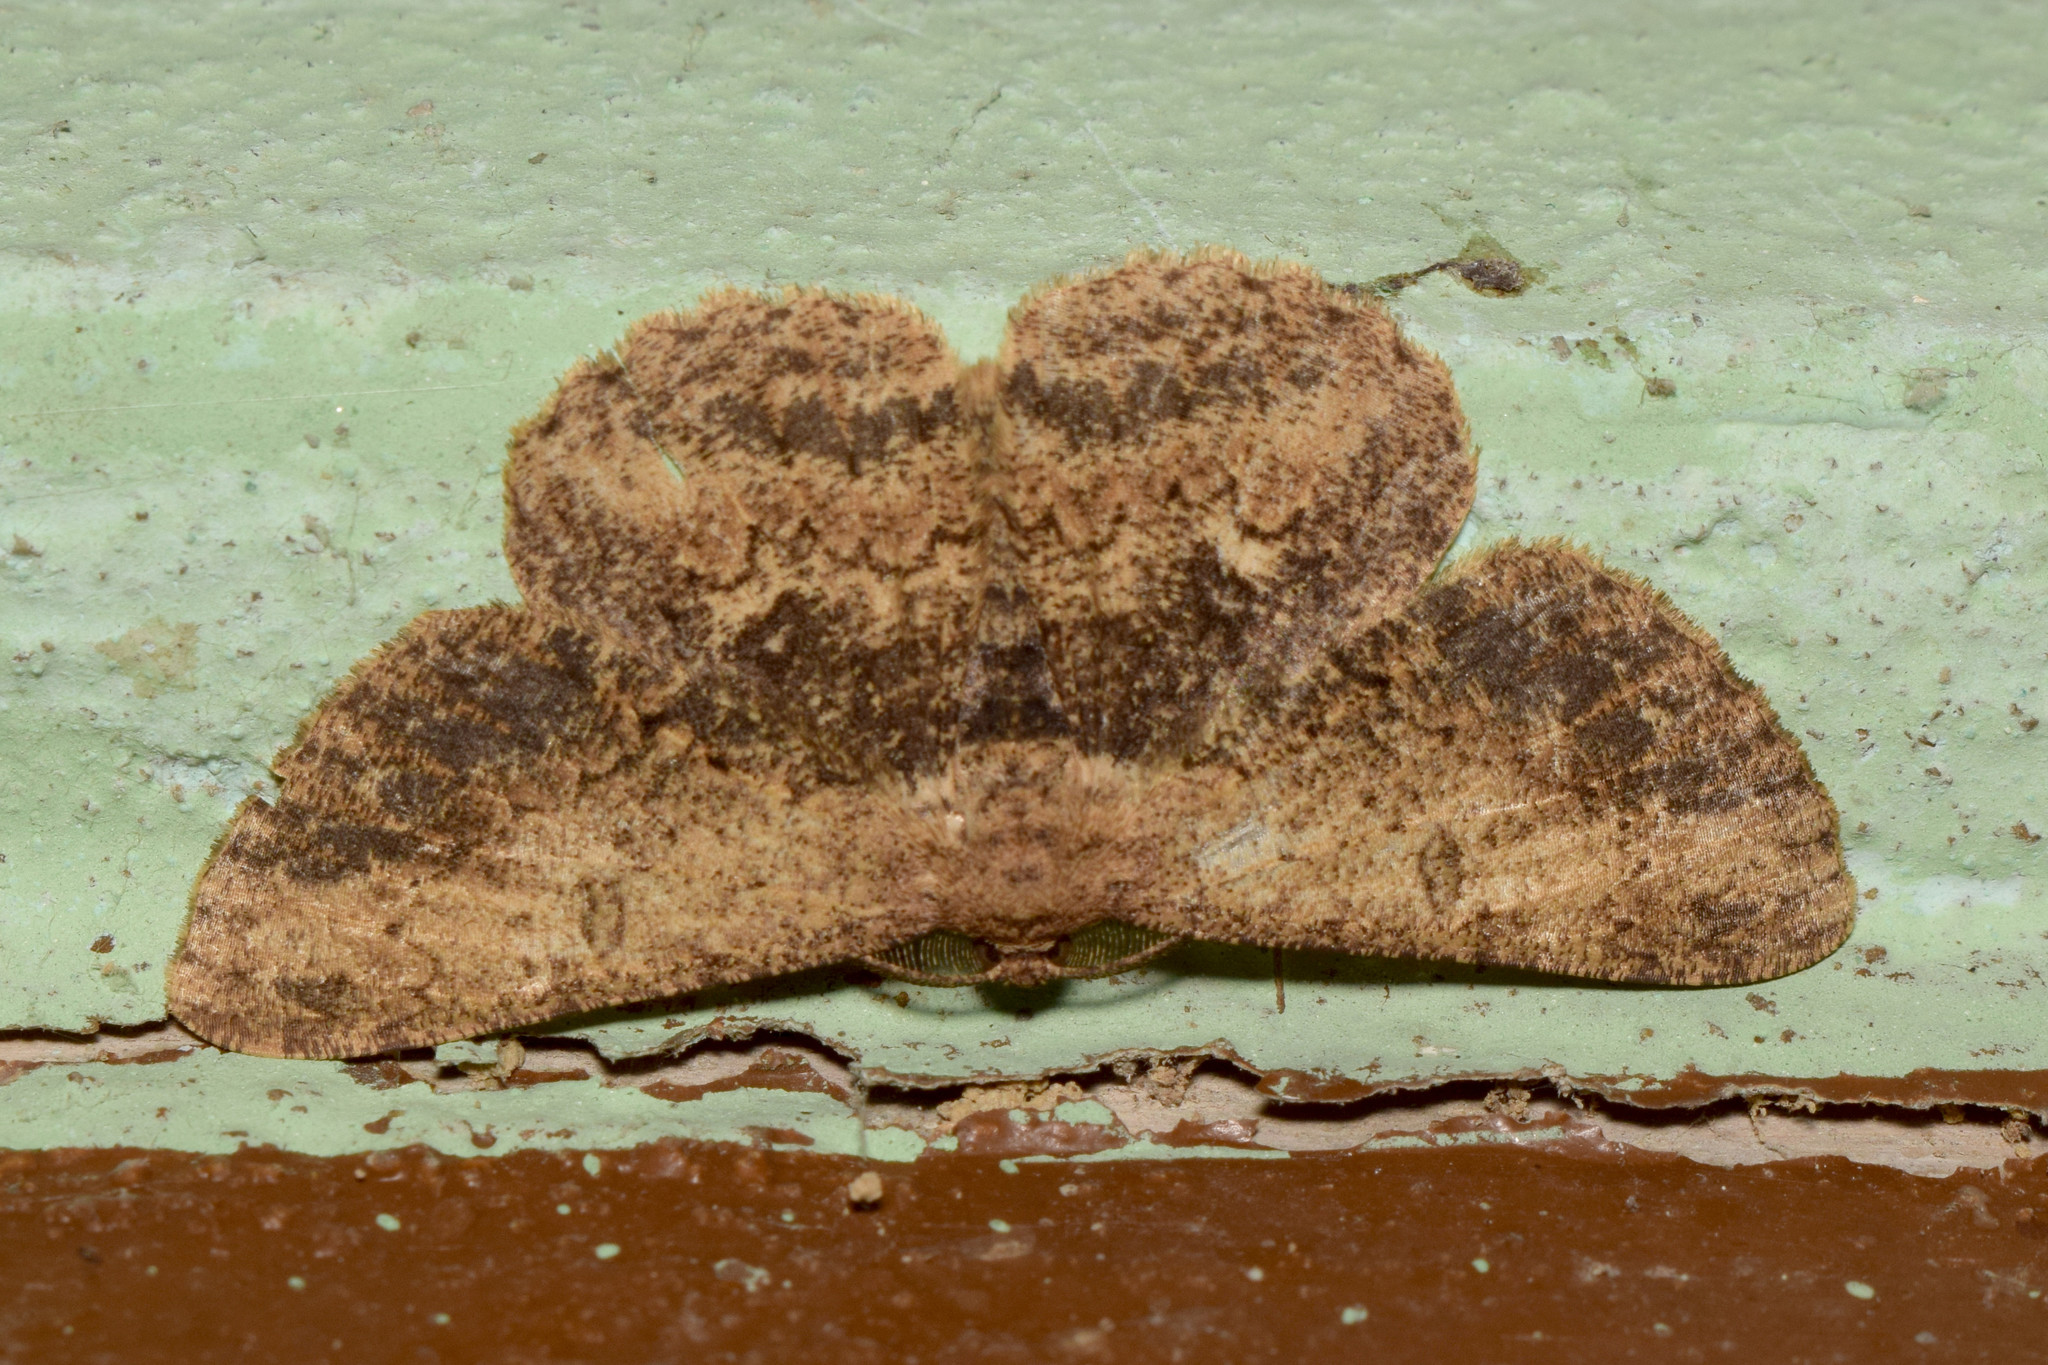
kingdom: Animalia
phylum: Arthropoda
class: Insecta
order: Lepidoptera
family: Geometridae
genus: Hypomecis
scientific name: Hypomecis separata
